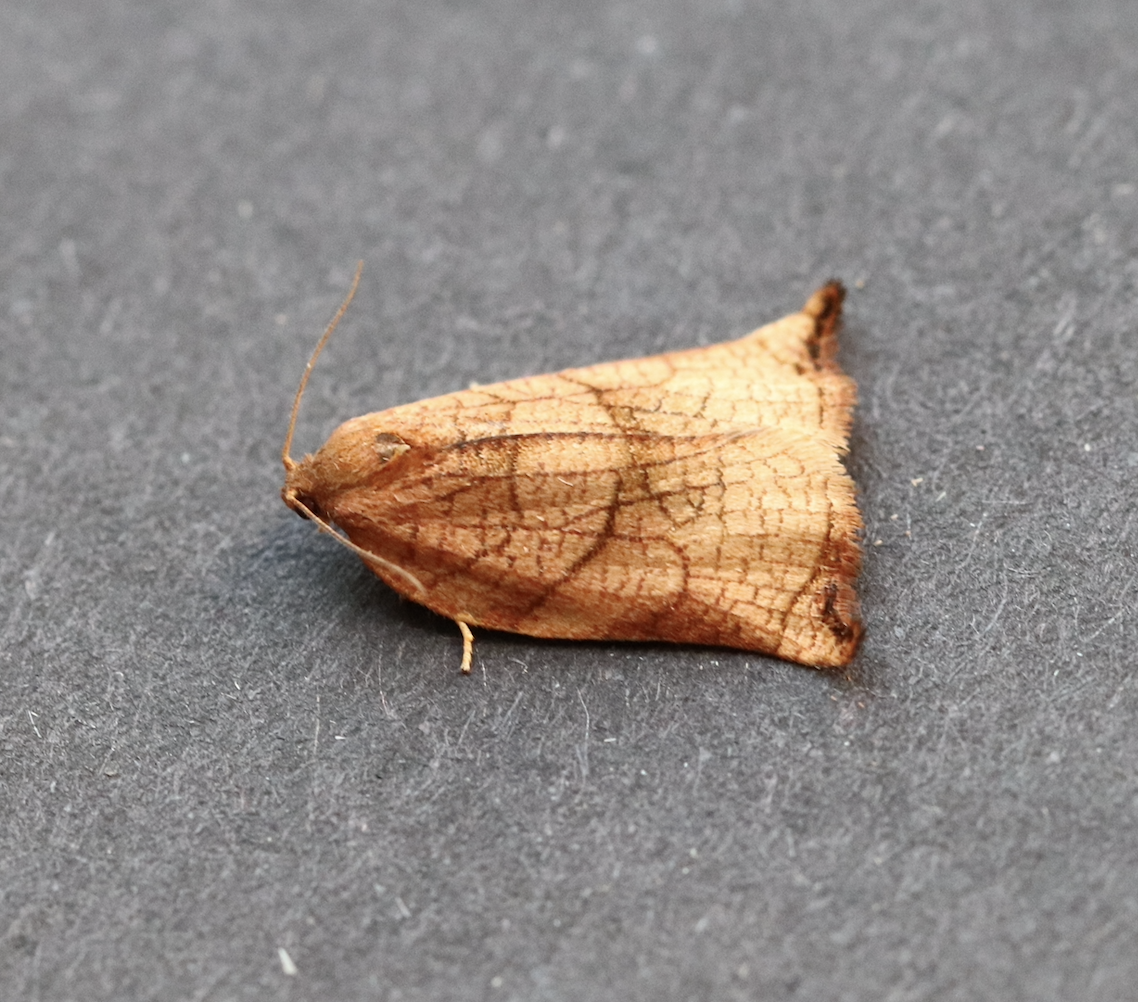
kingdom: Animalia
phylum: Arthropoda
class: Insecta
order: Lepidoptera
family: Tortricidae
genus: Archips
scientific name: Archips podana
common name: Large fruit-tree tortrix
